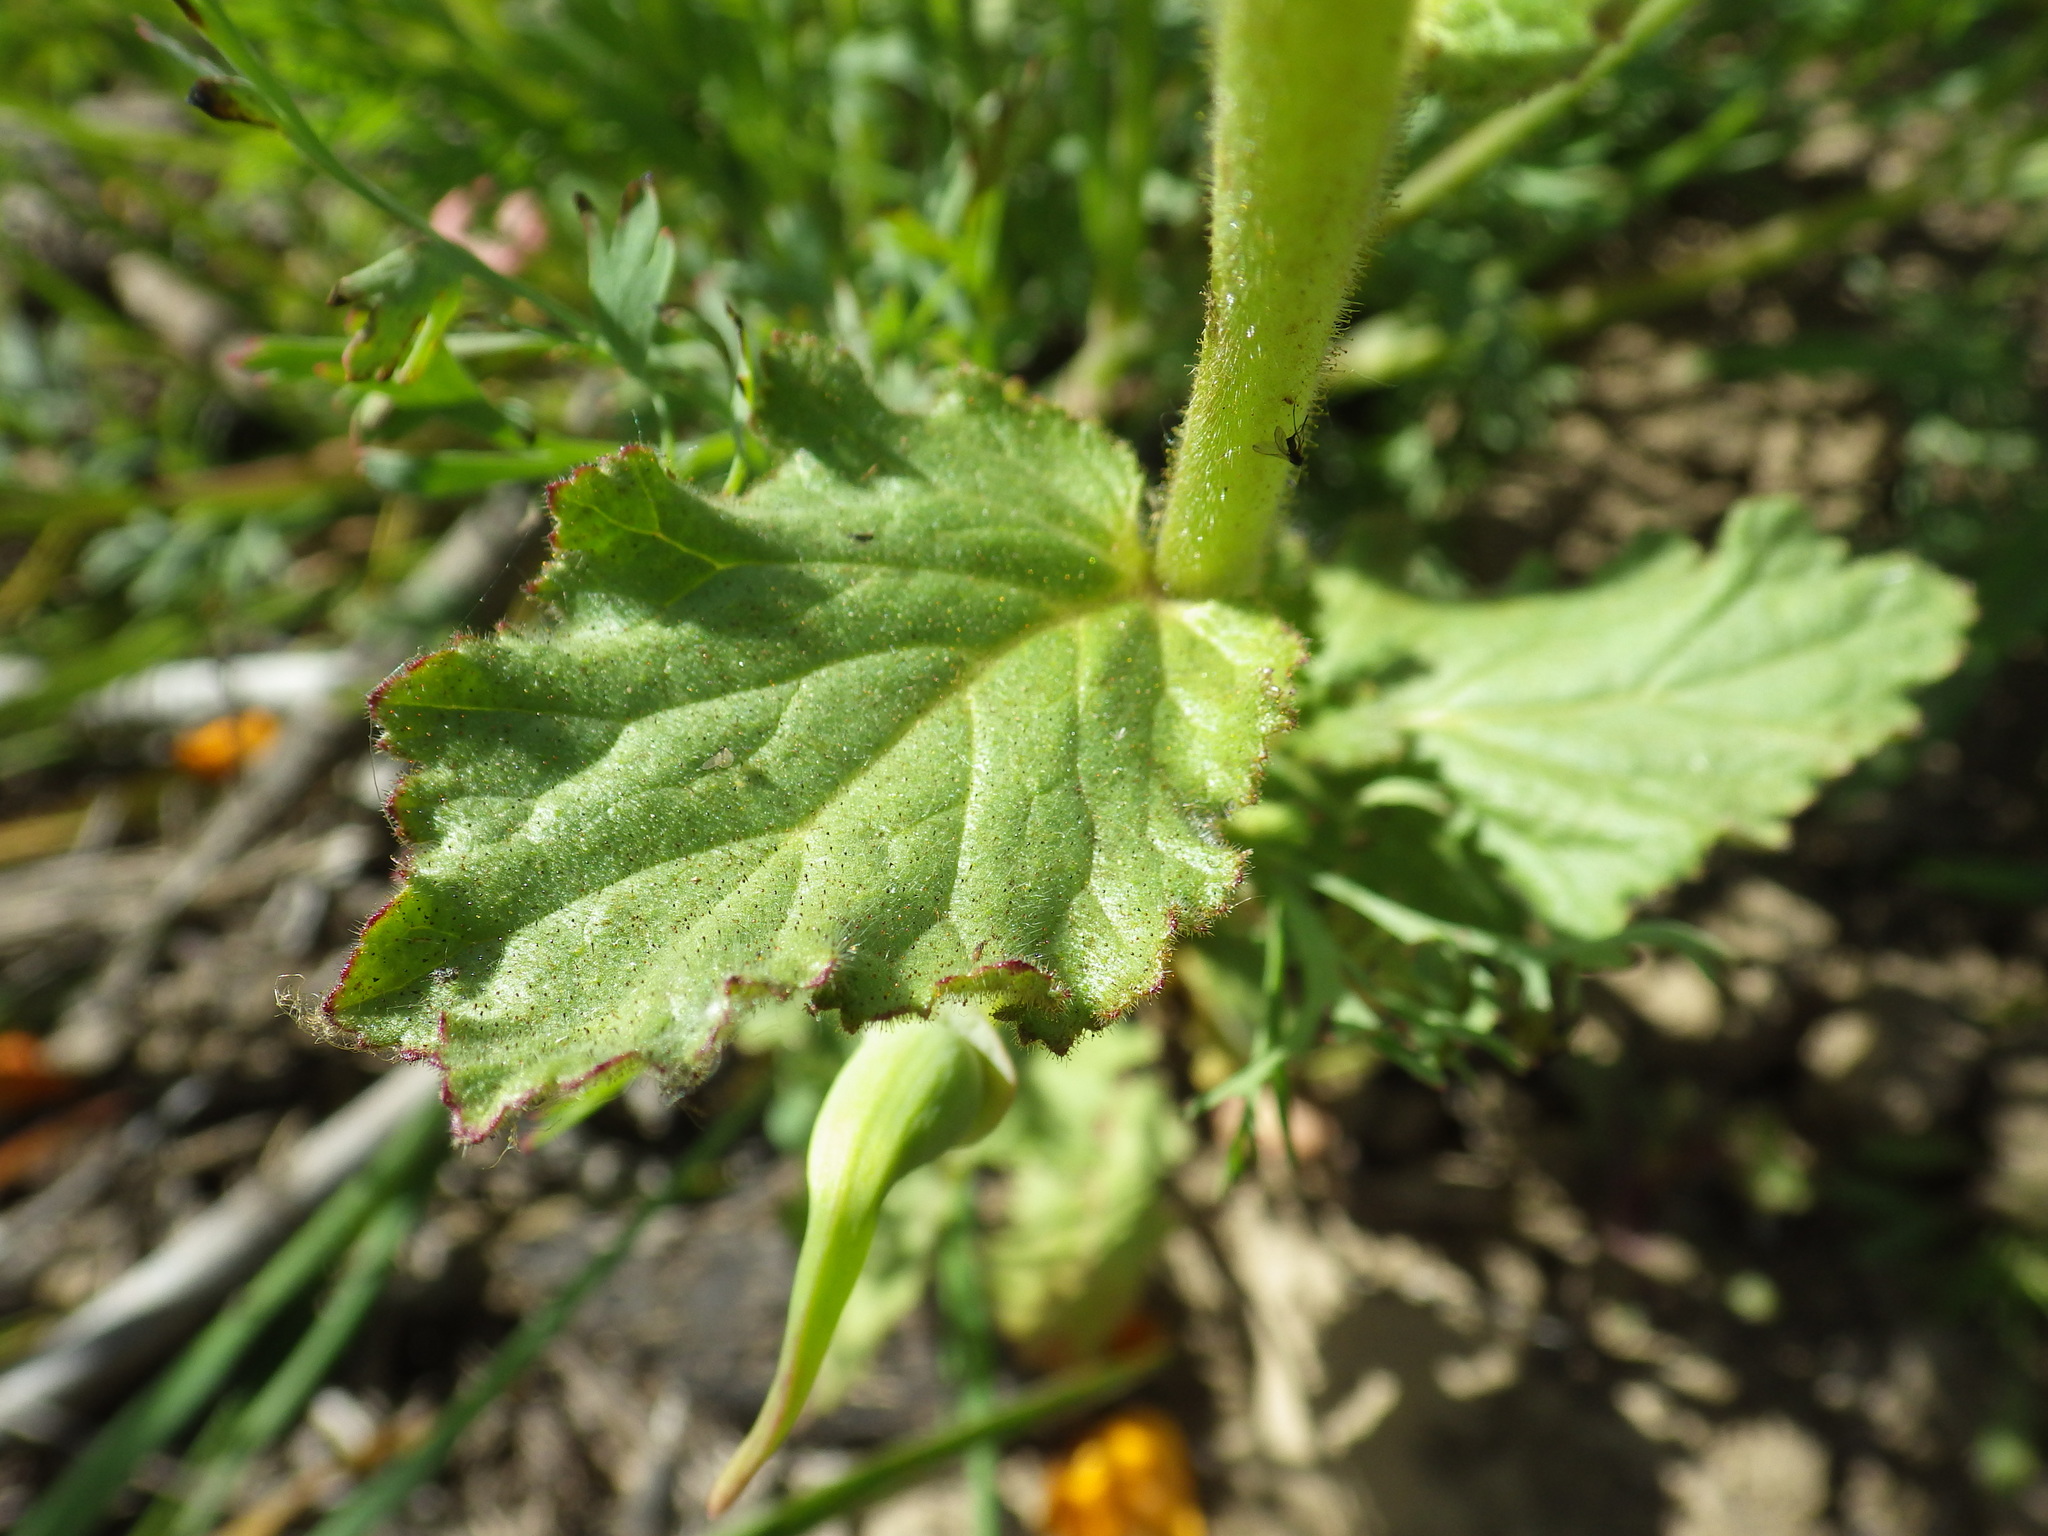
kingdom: Plantae
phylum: Tracheophyta
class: Magnoliopsida
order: Boraginales
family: Hydrophyllaceae
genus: Phacelia
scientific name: Phacelia viscida
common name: Sticky phacelia
